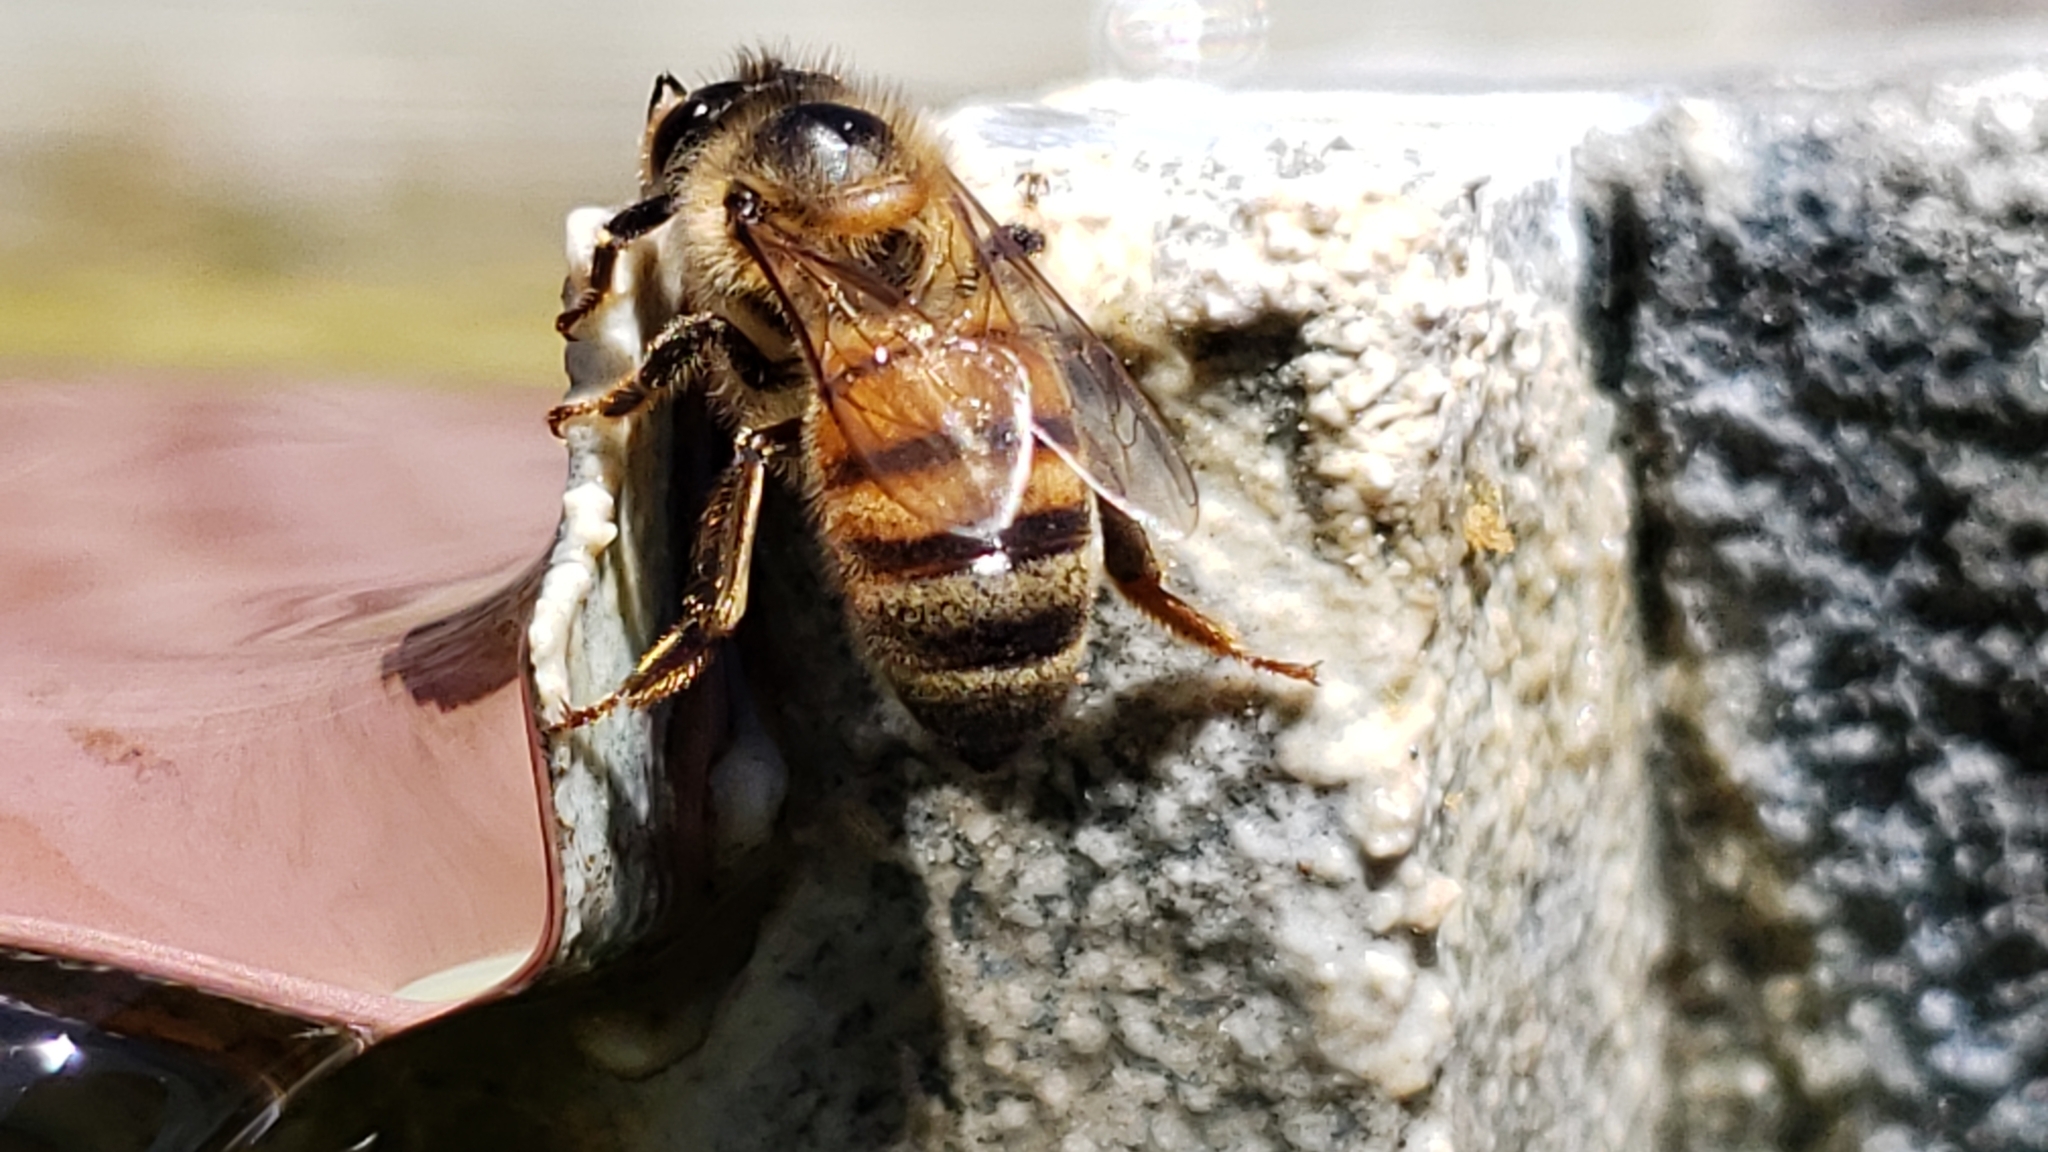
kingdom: Animalia
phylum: Arthropoda
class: Insecta
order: Hymenoptera
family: Apidae
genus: Apis
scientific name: Apis mellifera
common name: Honey bee
